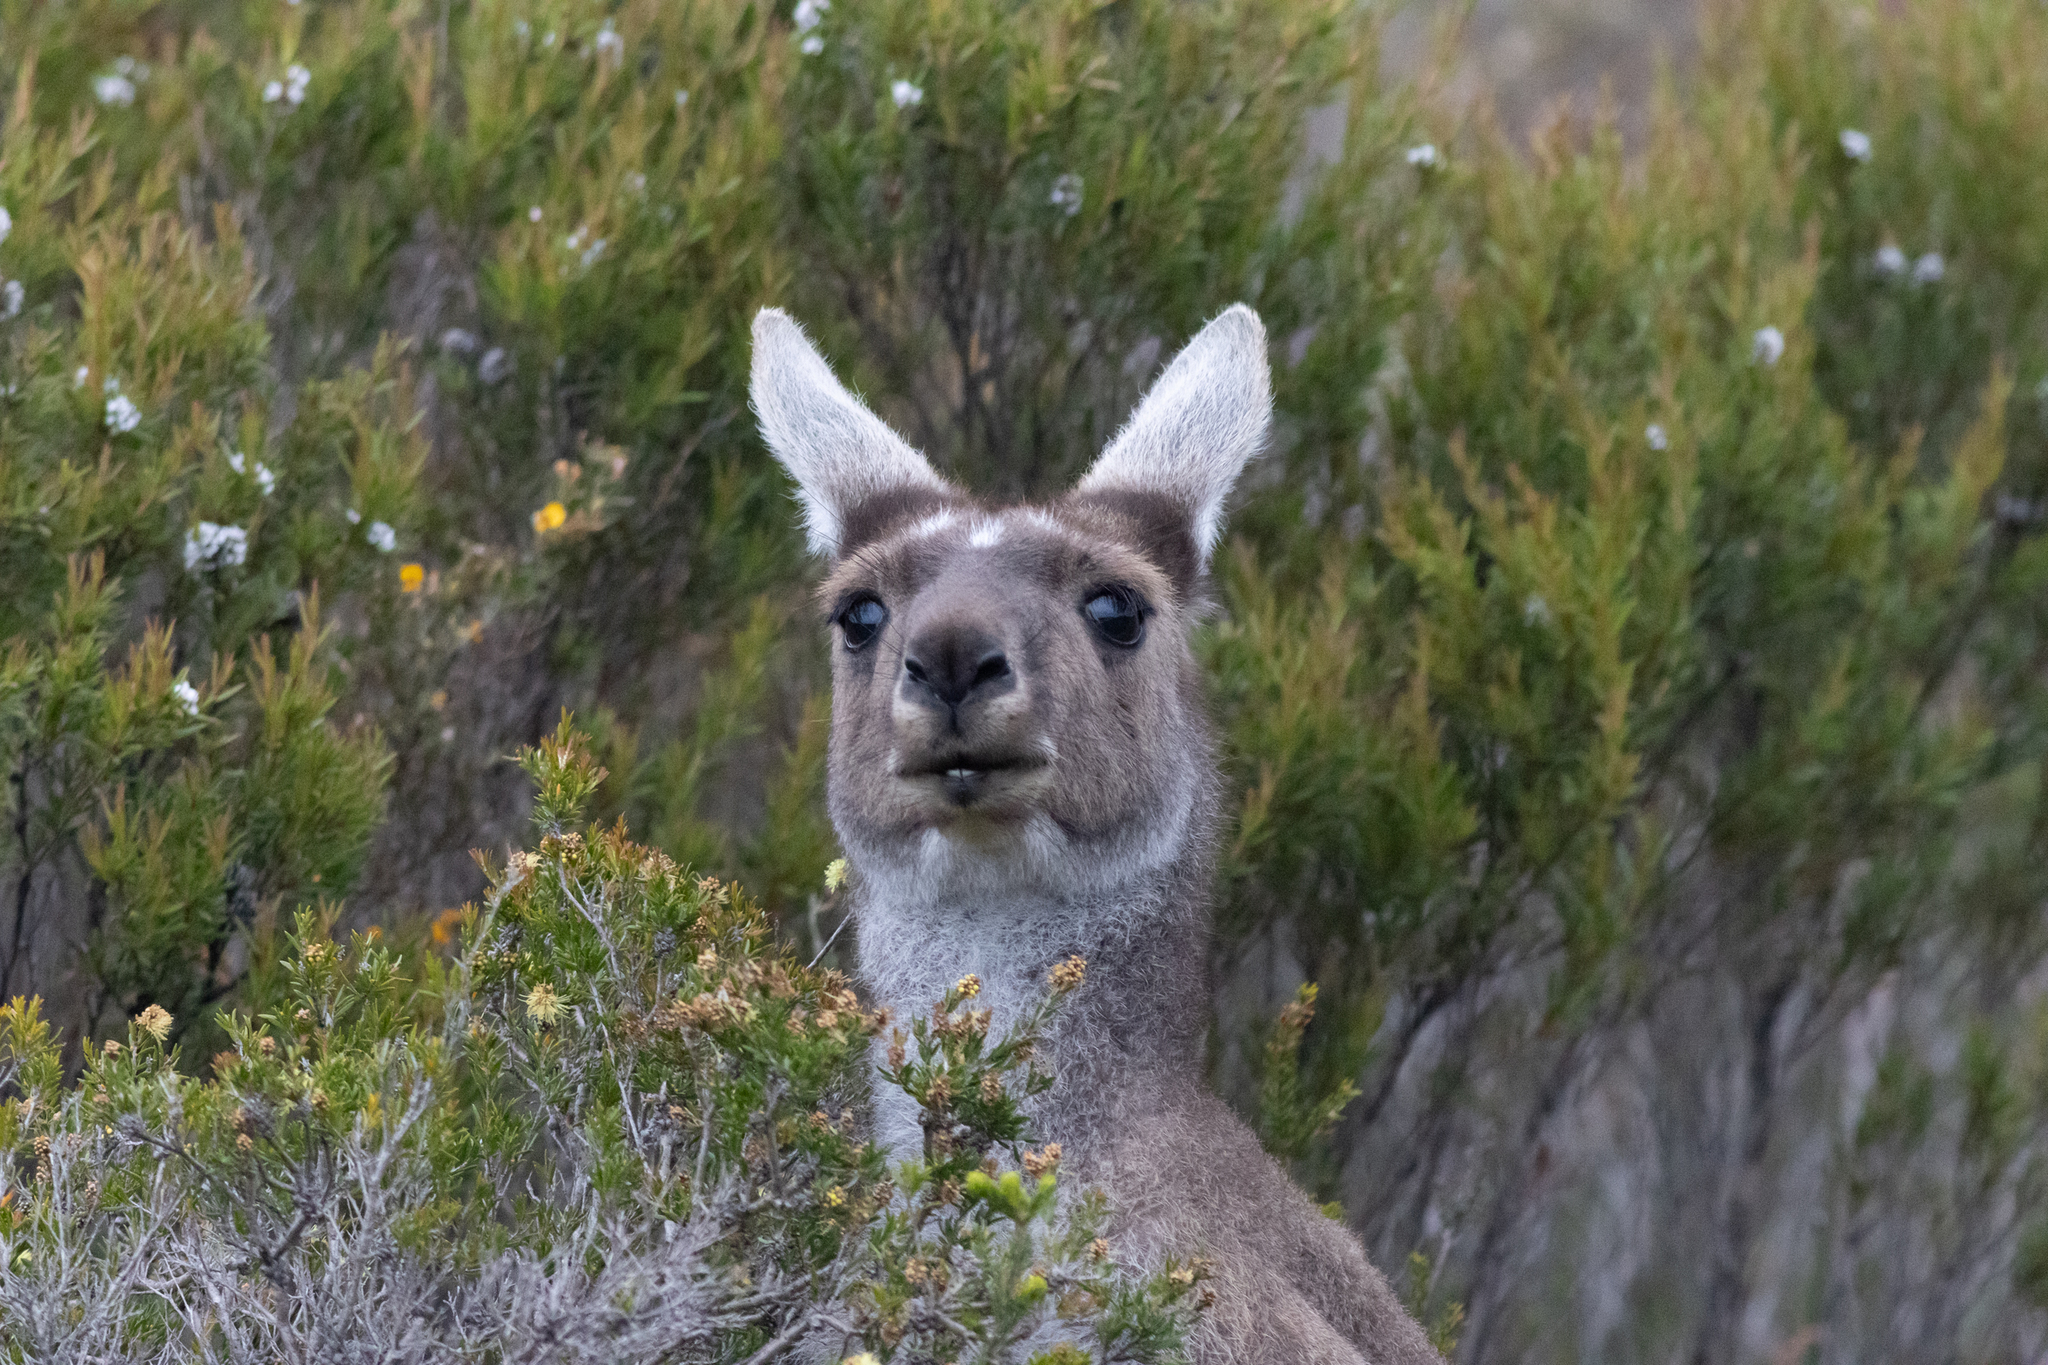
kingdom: Animalia
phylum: Chordata
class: Mammalia
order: Diprotodontia
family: Macropodidae
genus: Macropus
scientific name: Macropus fuliginosus
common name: Western grey kangaroo
